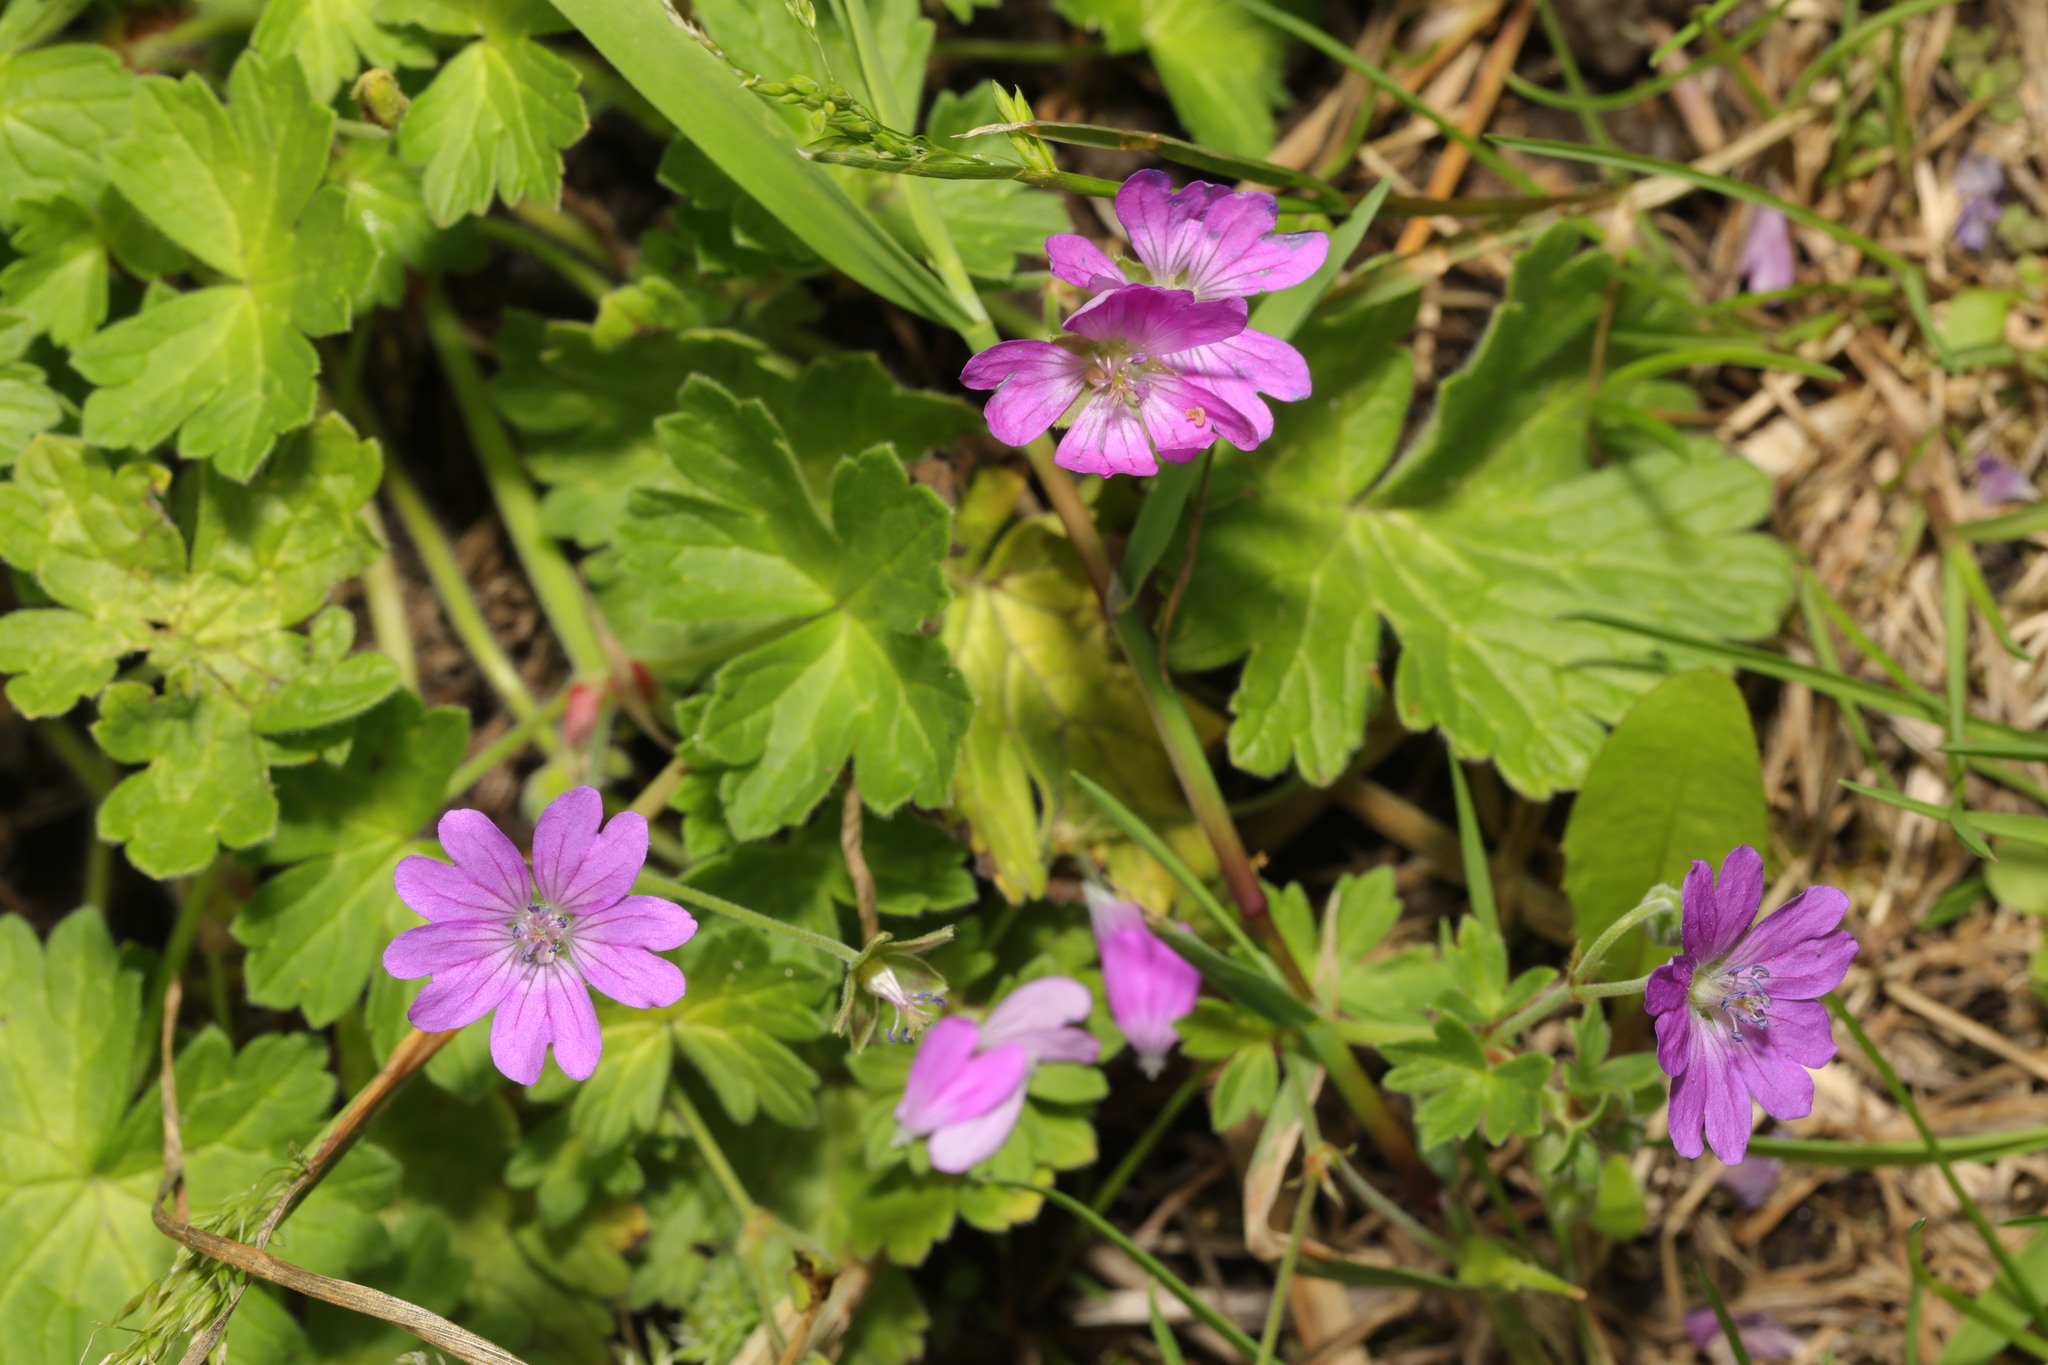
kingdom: Plantae
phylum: Tracheophyta
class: Magnoliopsida
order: Geraniales
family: Geraniaceae
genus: Geranium
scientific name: Geranium pyrenaicum
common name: Hedgerow crane's-bill
